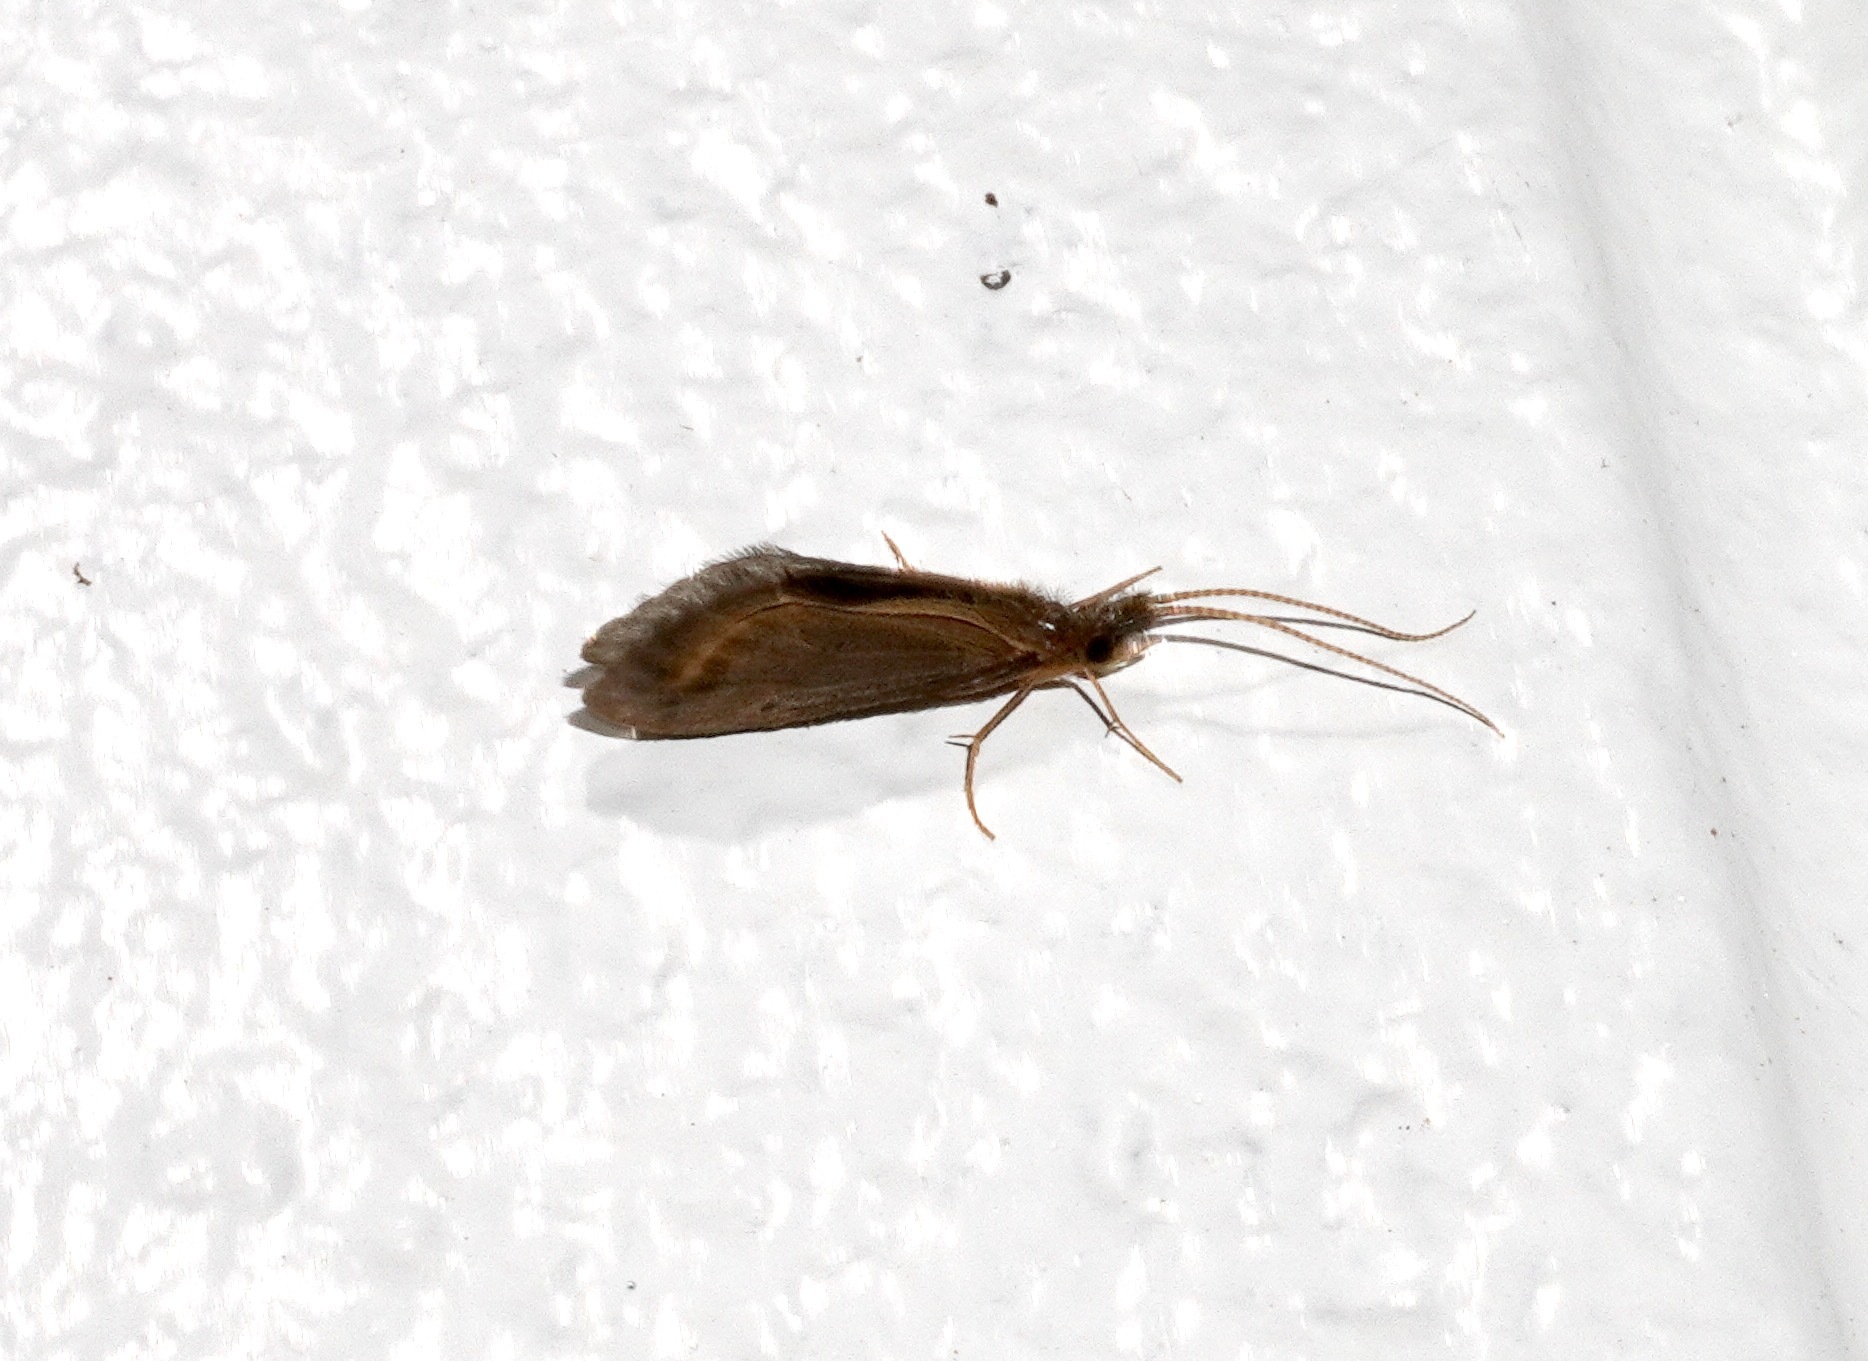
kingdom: Animalia
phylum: Arthropoda
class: Insecta
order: Trichoptera
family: Conoesucidae
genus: Olinga
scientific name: Olinga feredayi
